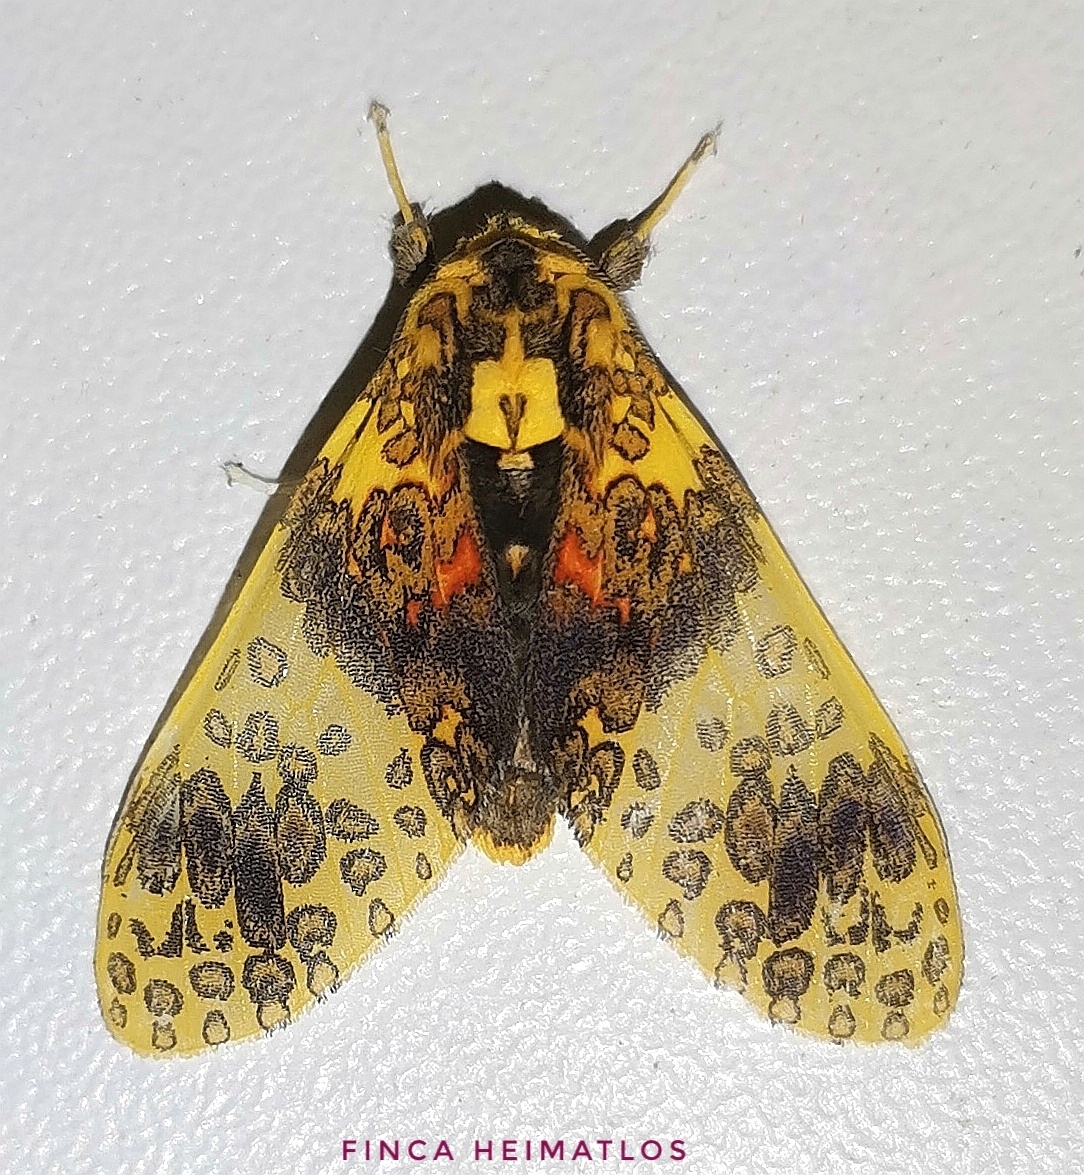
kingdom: Animalia
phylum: Arthropoda
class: Insecta
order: Lepidoptera
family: Erebidae
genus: Amaxia
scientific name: Amaxia violacea
